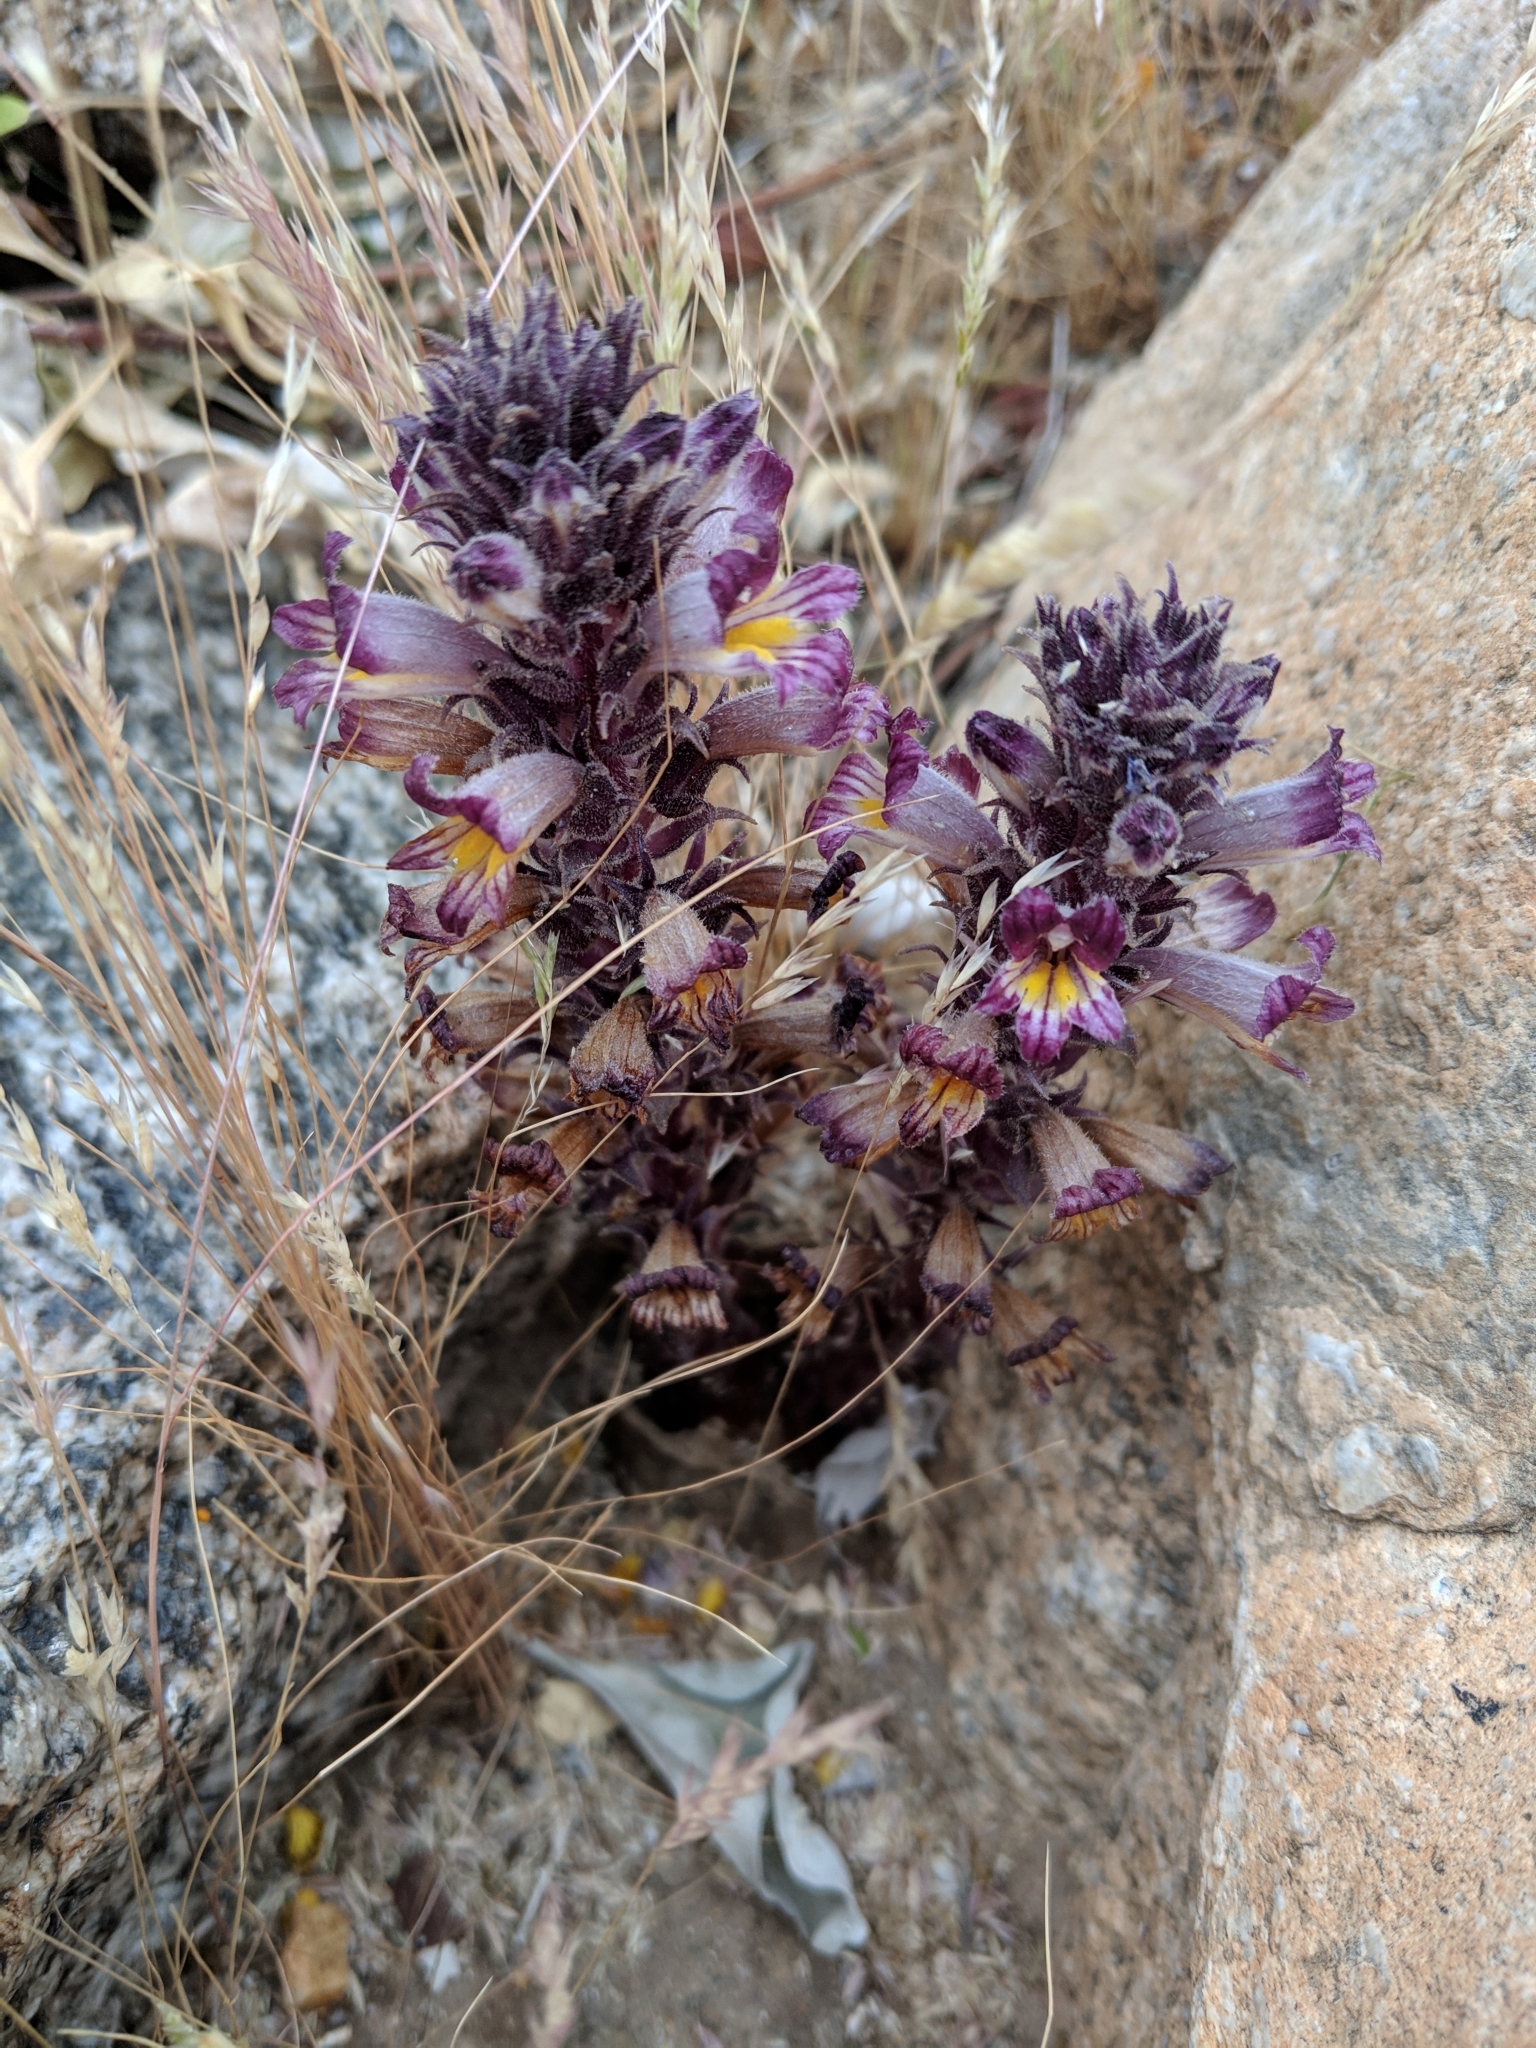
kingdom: Plantae
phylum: Tracheophyta
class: Magnoliopsida
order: Lamiales
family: Orobanchaceae
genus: Aphyllon
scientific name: Aphyllon cooperi
